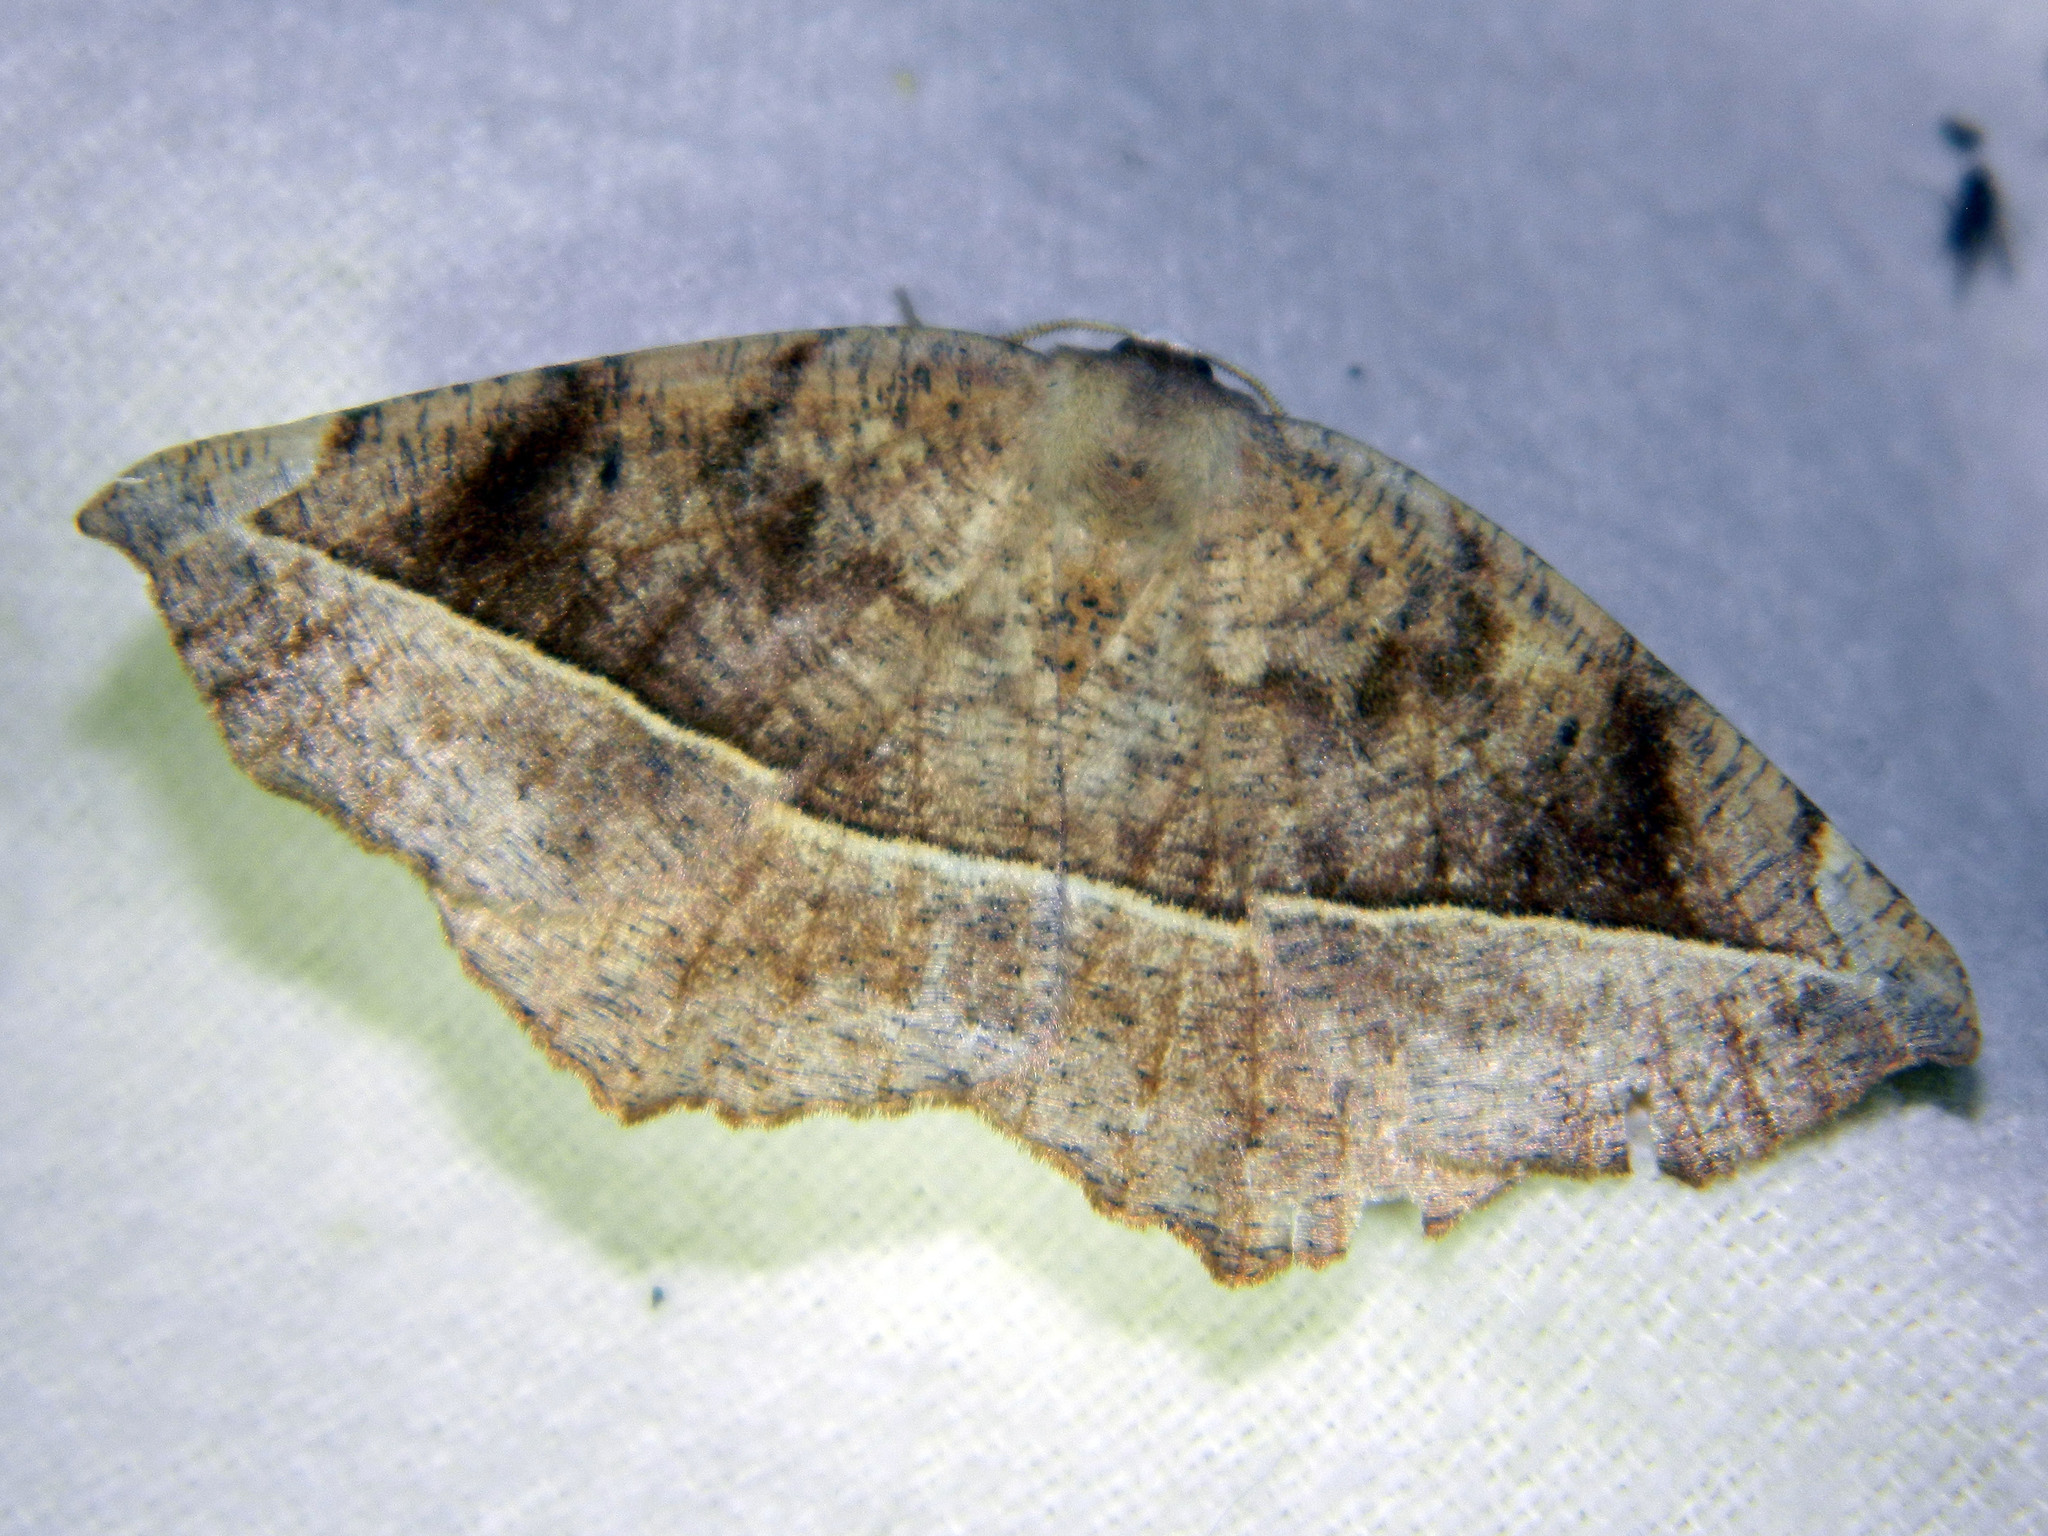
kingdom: Animalia
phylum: Arthropoda
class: Insecta
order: Lepidoptera
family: Geometridae
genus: Eutrapela
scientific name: Eutrapela clemataria
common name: Curved-toothed geometer
